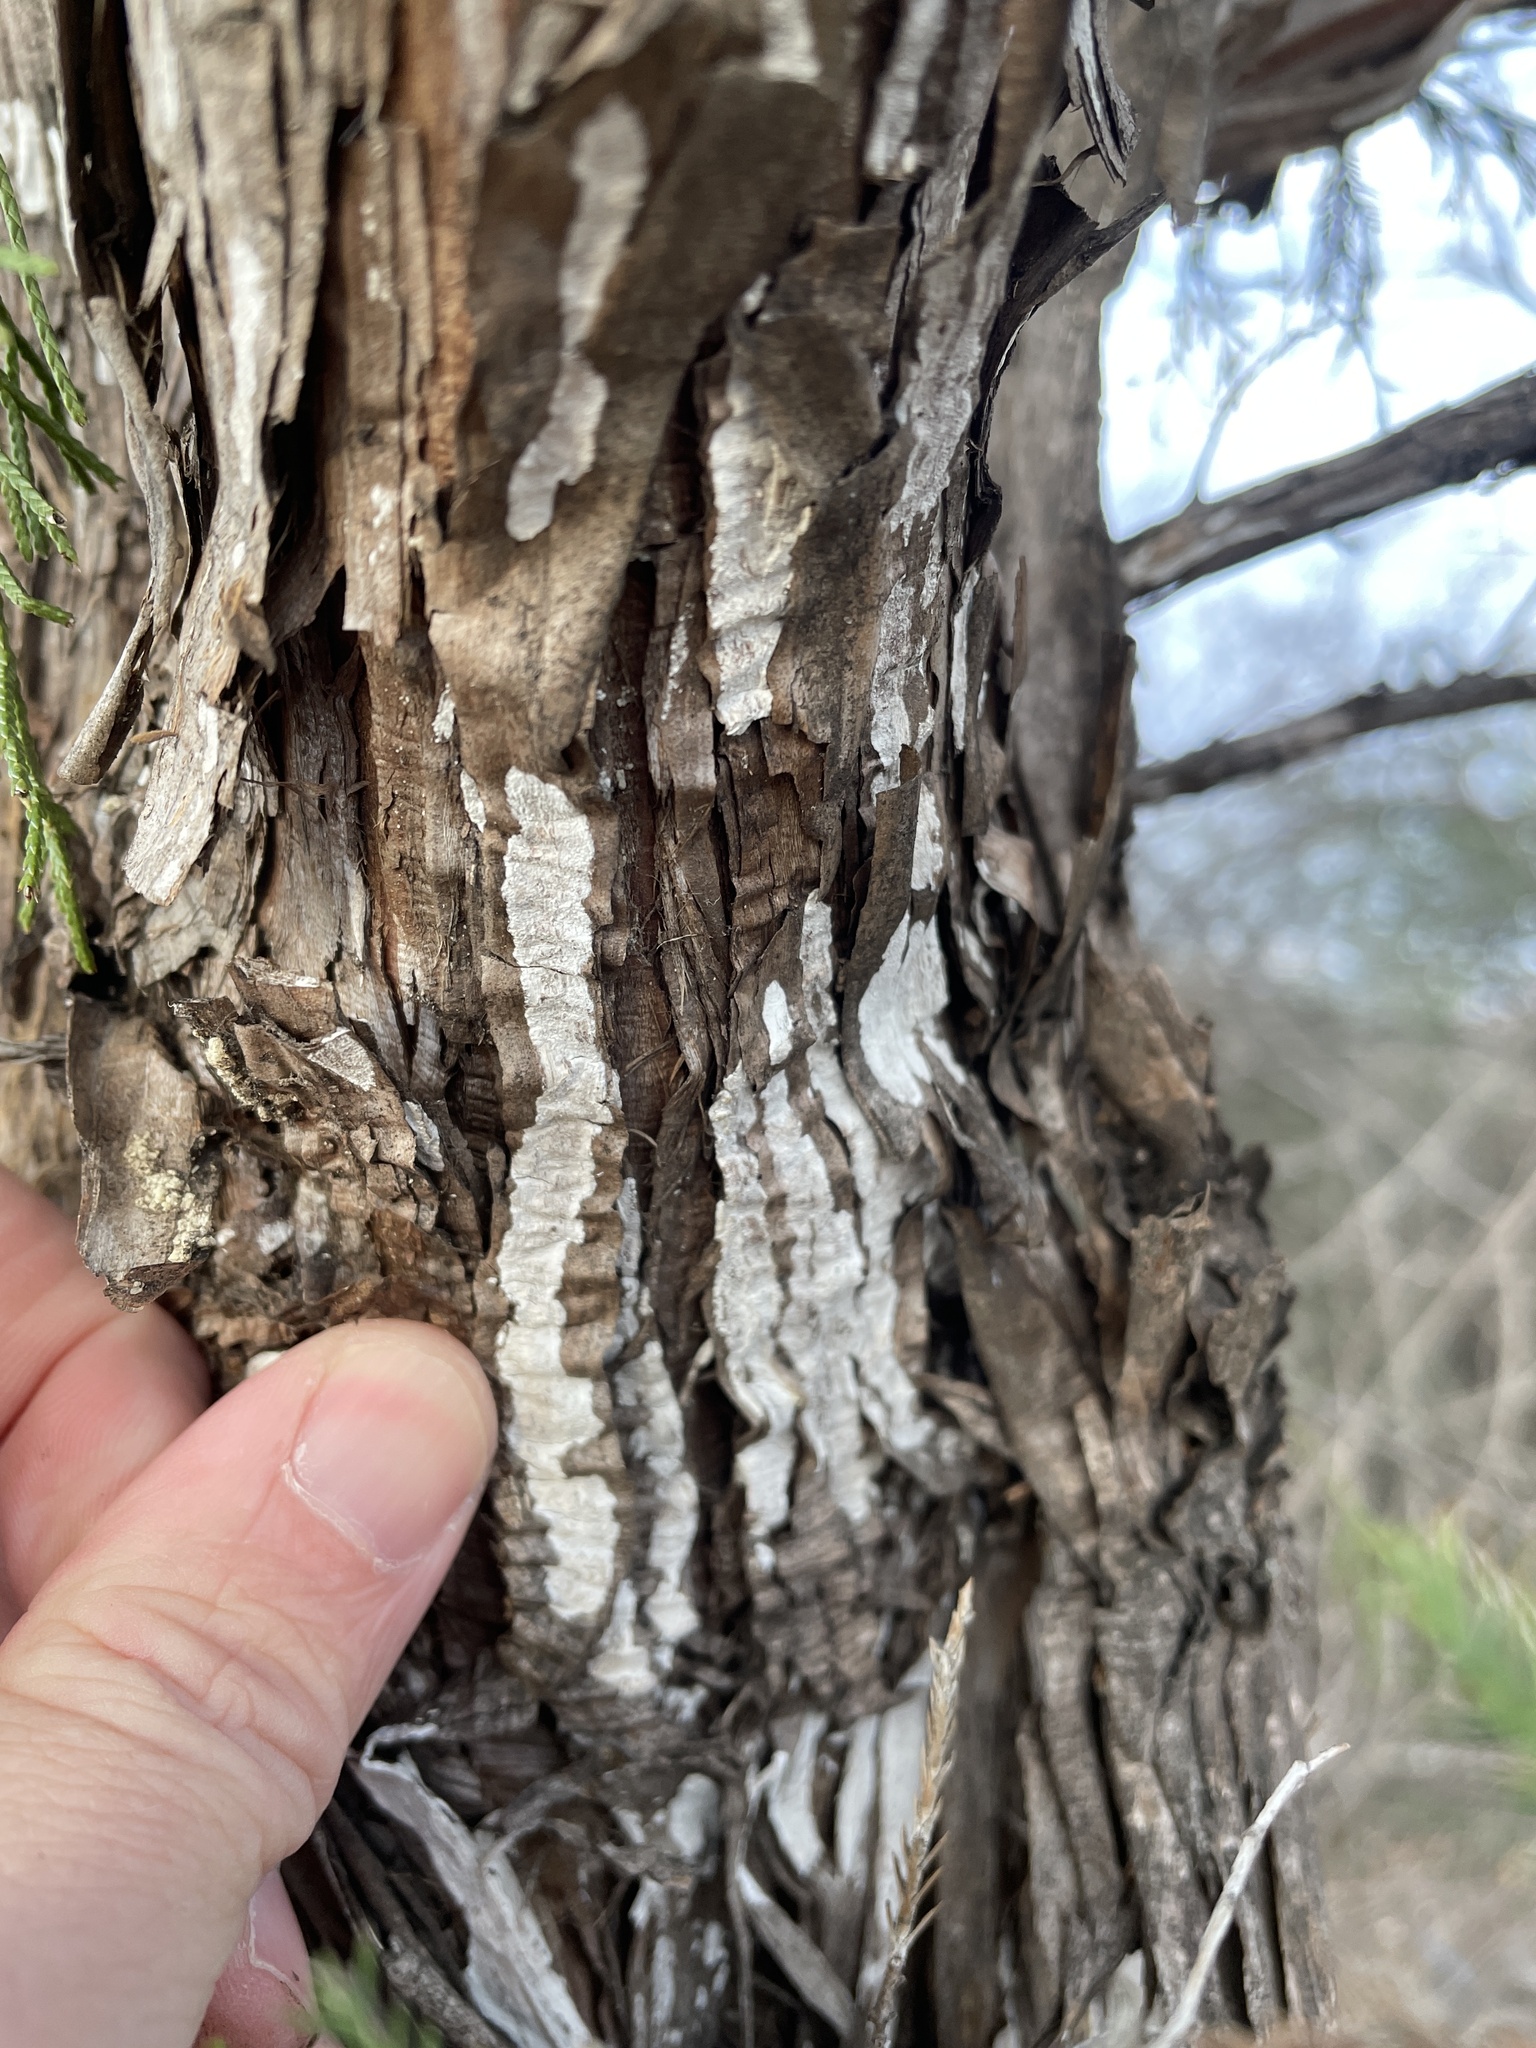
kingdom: Fungi
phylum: Basidiomycota
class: Agaricomycetes
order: Agaricales
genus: Dendrothele
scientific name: Dendrothele nivosa
